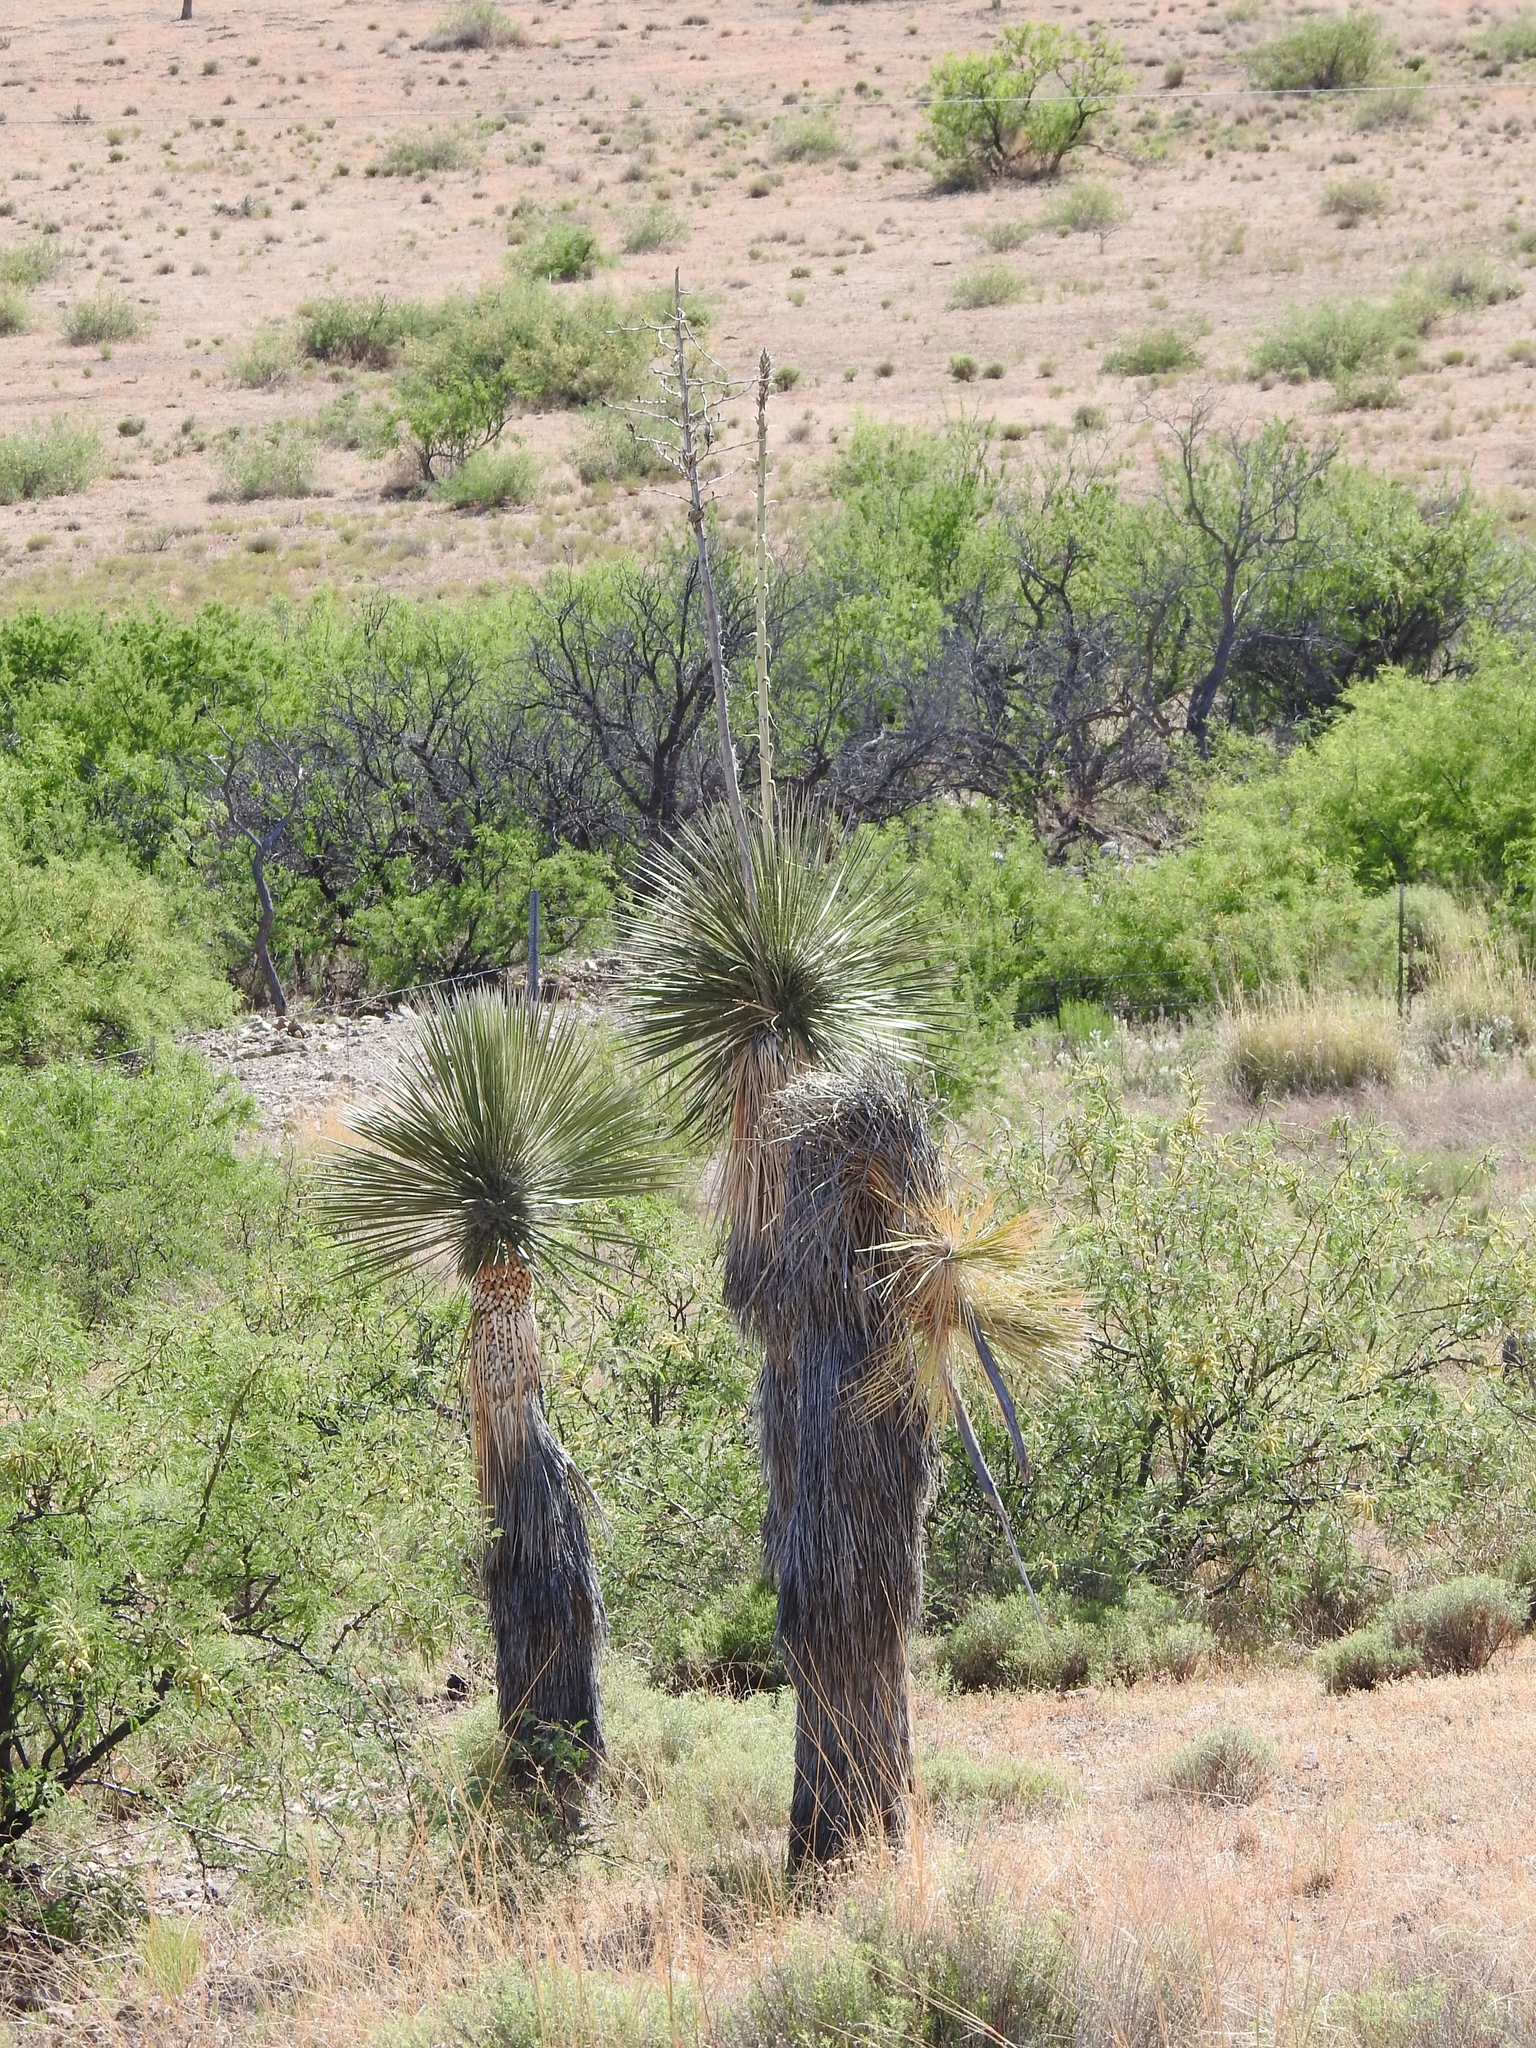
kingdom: Plantae
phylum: Tracheophyta
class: Liliopsida
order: Asparagales
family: Asparagaceae
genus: Yucca
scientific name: Yucca elata
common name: Palmella
